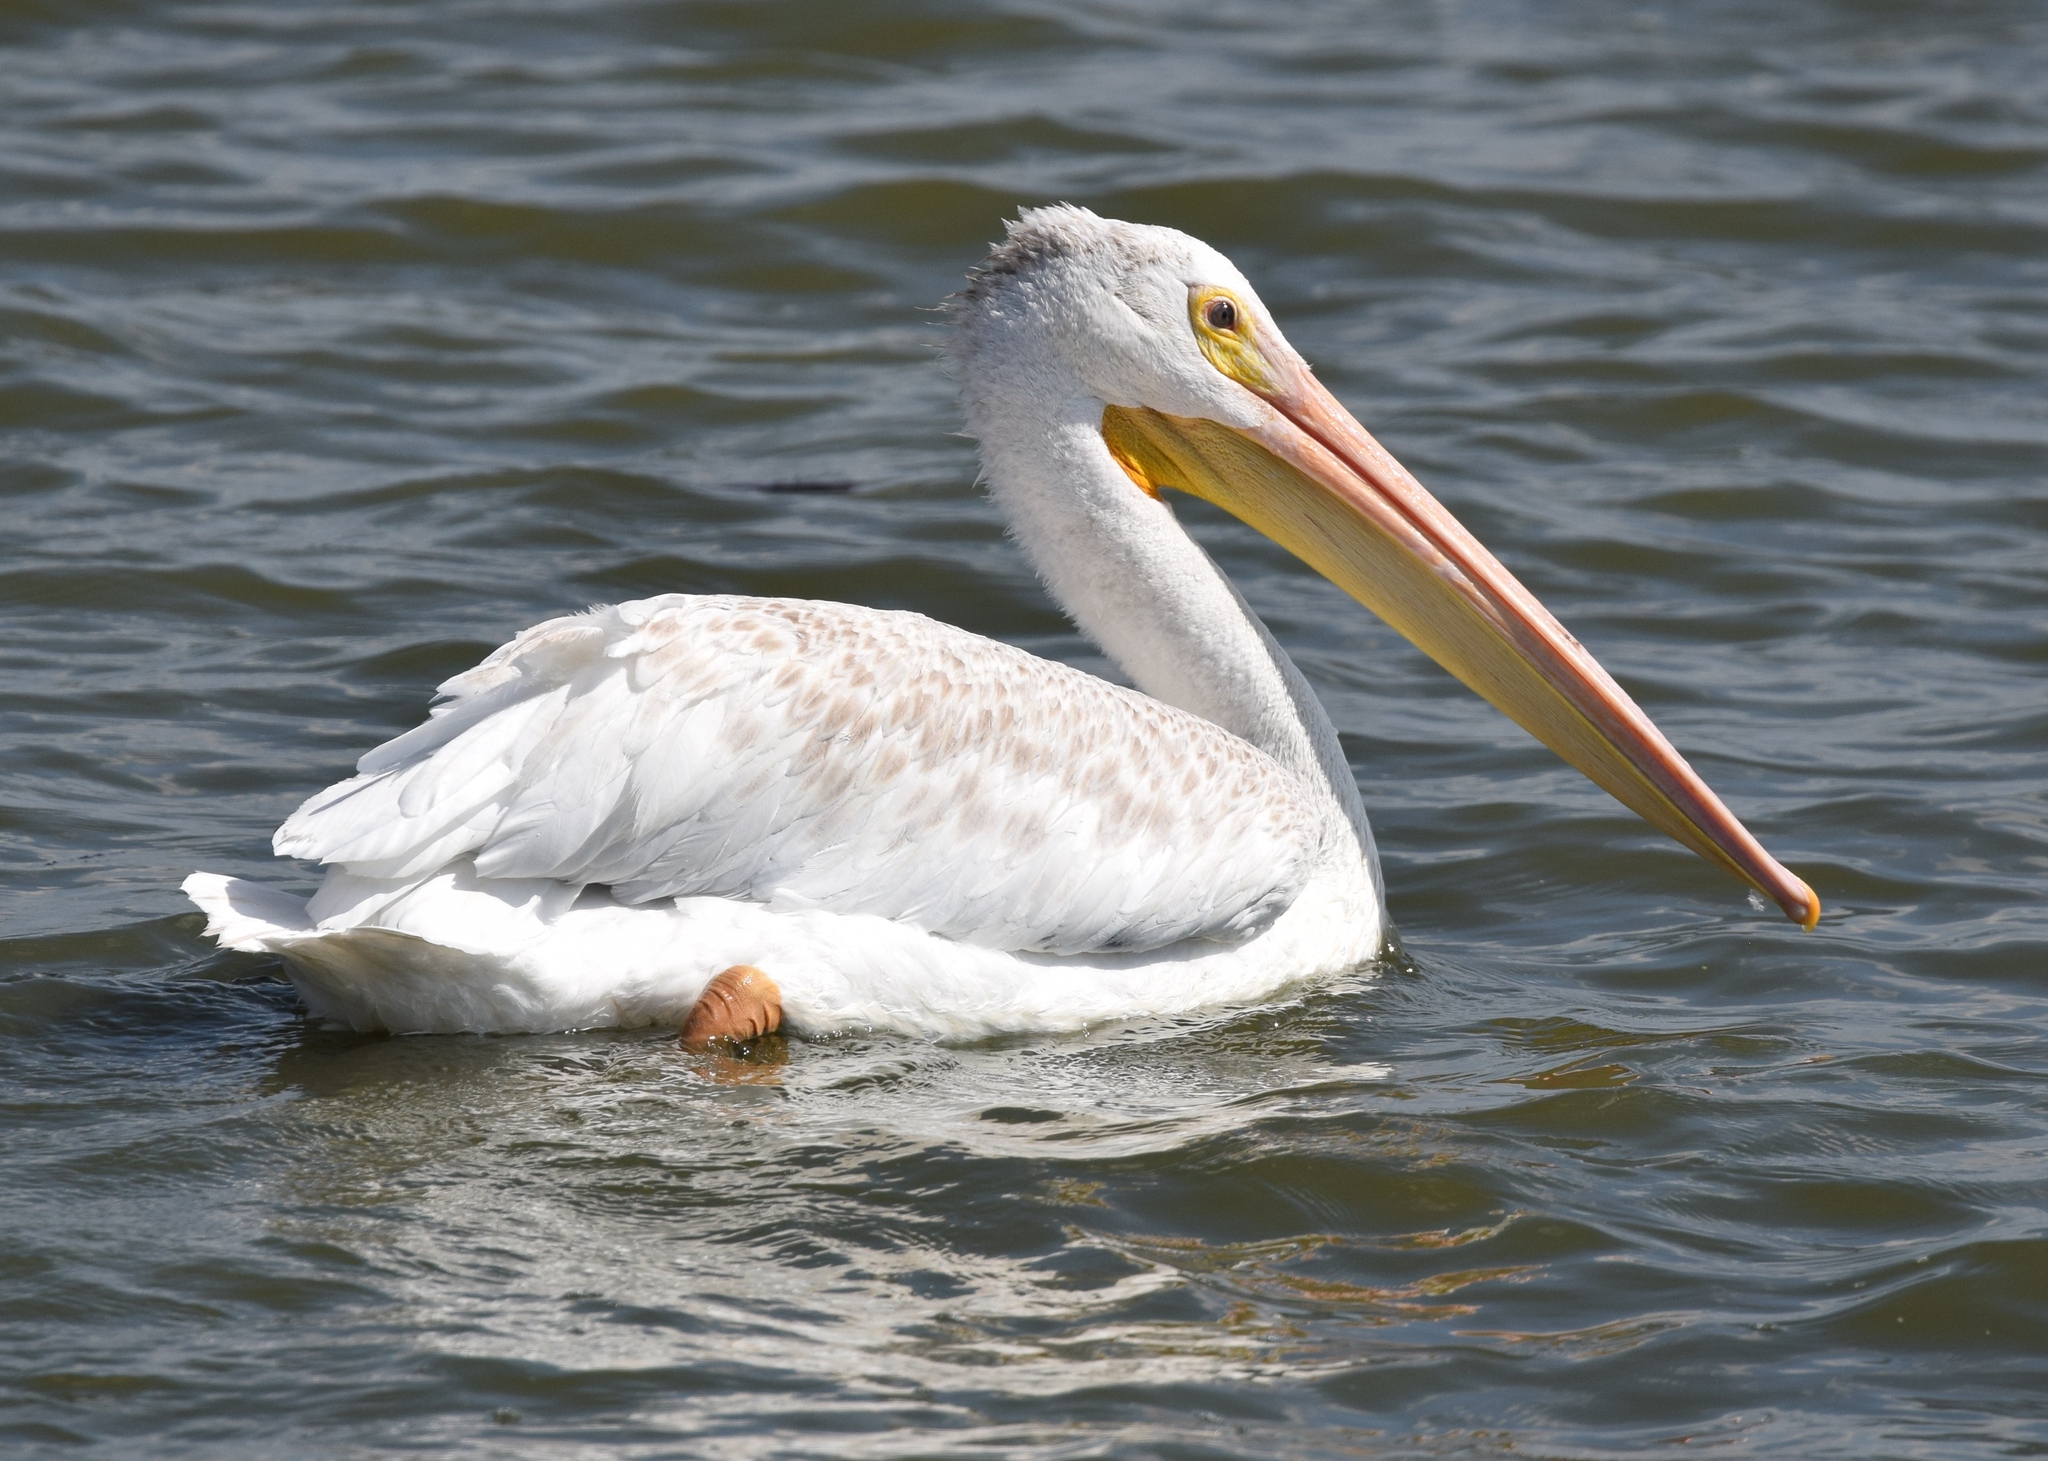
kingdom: Animalia
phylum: Chordata
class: Aves
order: Pelecaniformes
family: Pelecanidae
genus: Pelecanus
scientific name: Pelecanus erythrorhynchos
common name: American white pelican
